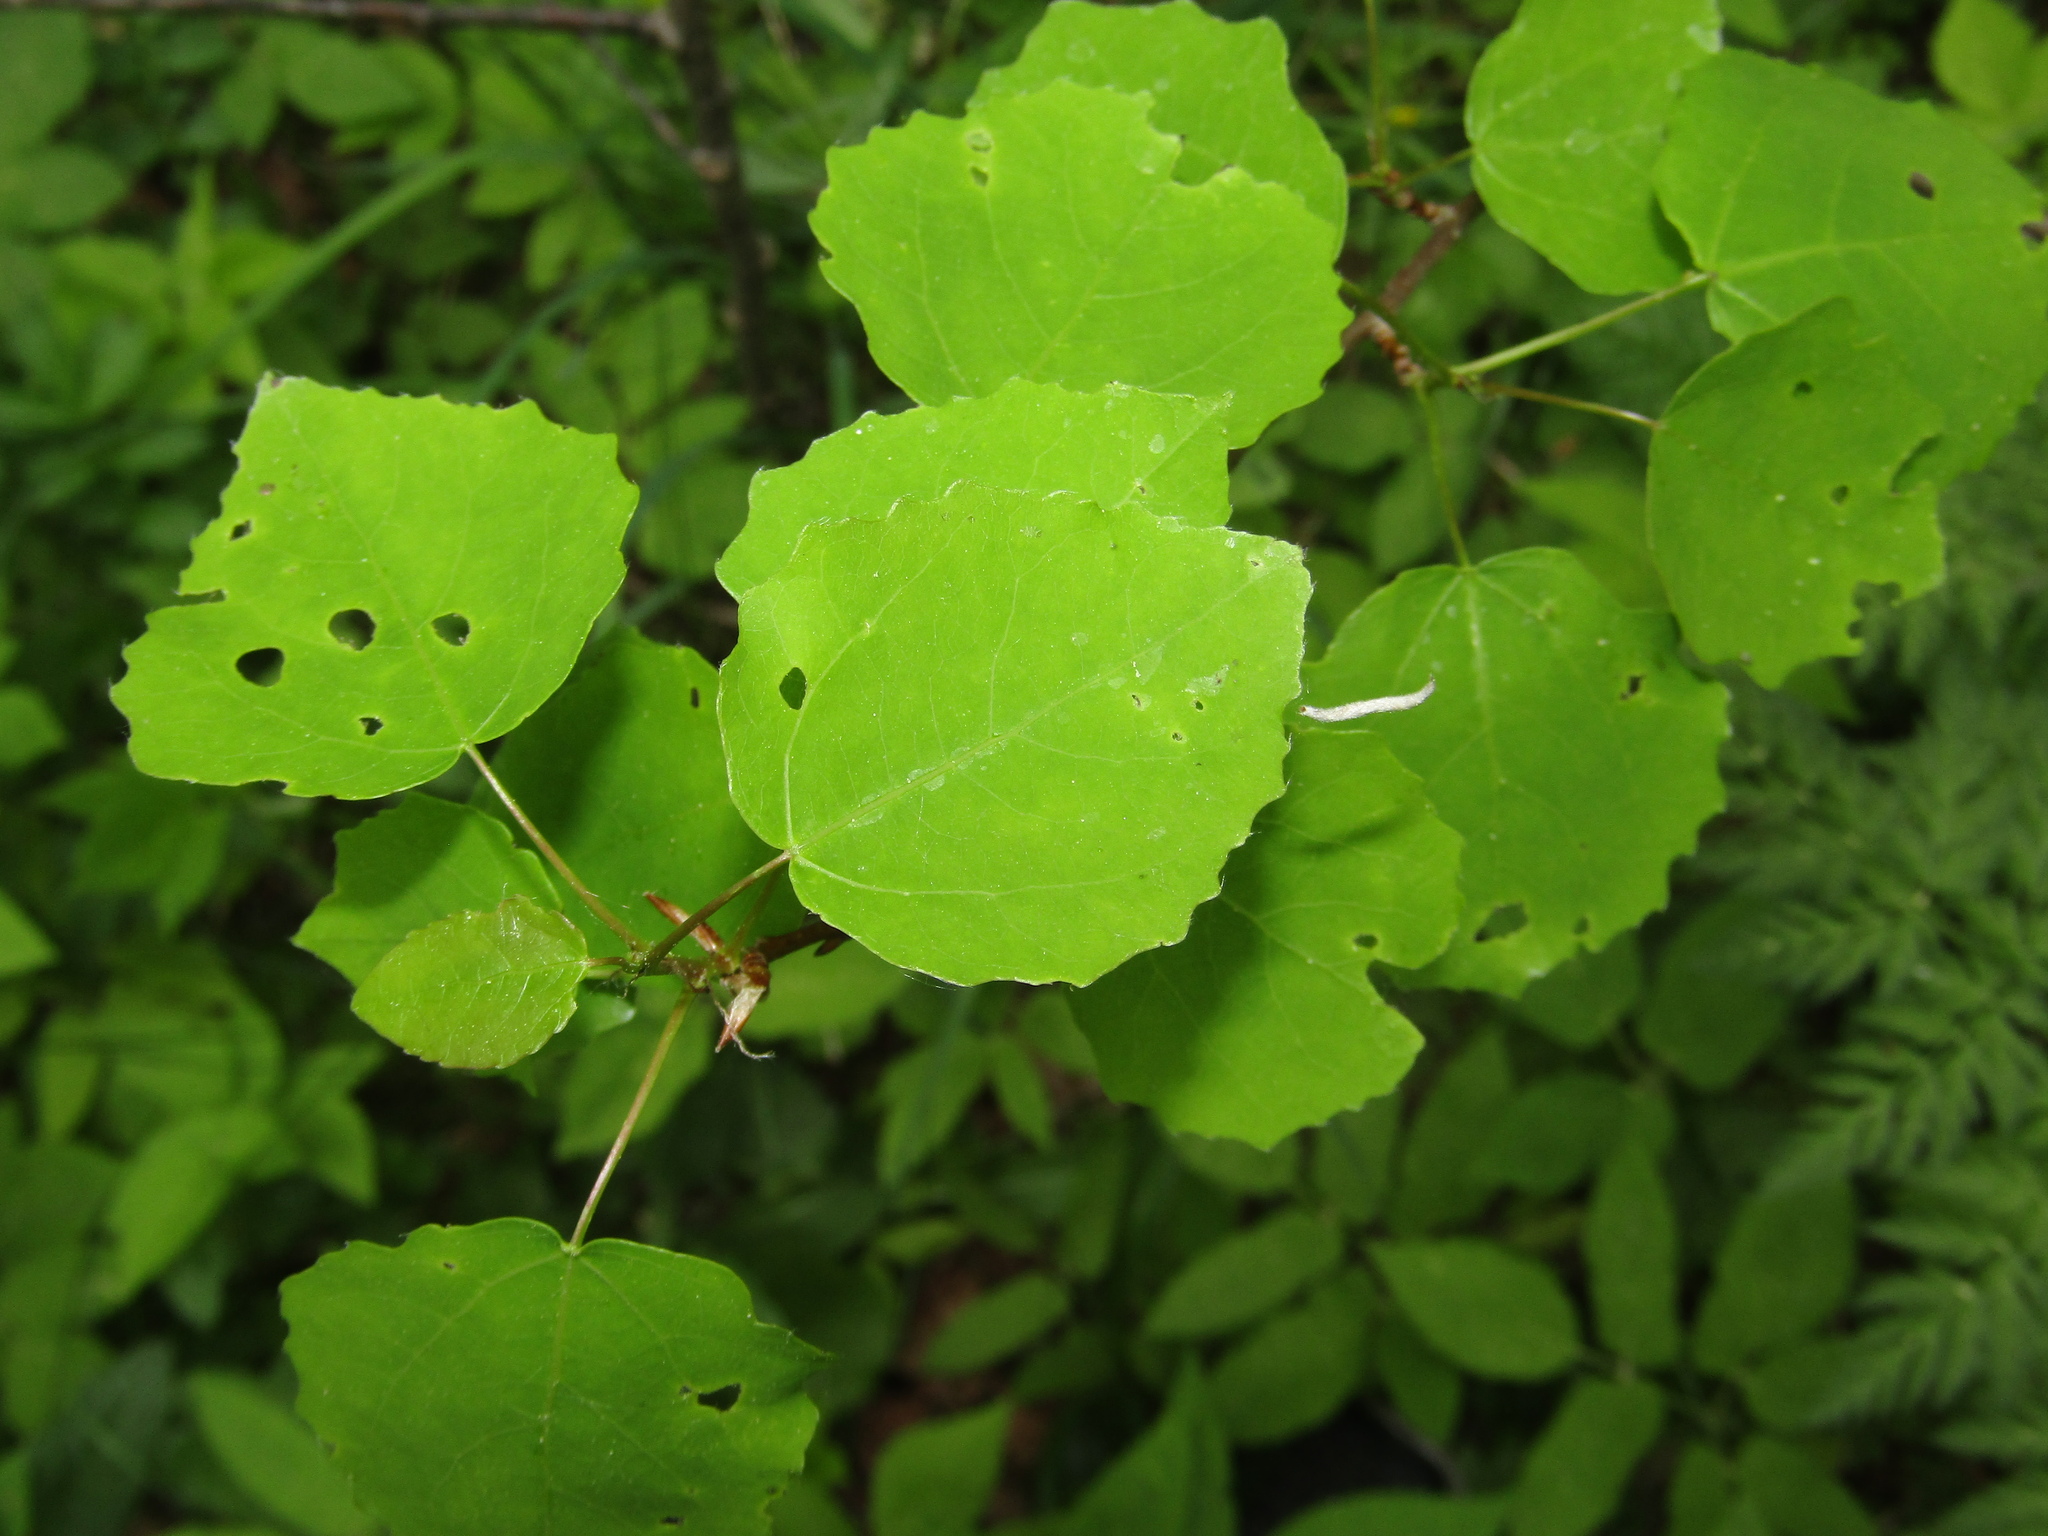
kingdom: Plantae
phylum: Tracheophyta
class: Magnoliopsida
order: Malpighiales
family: Salicaceae
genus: Populus
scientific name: Populus tremula
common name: European aspen
